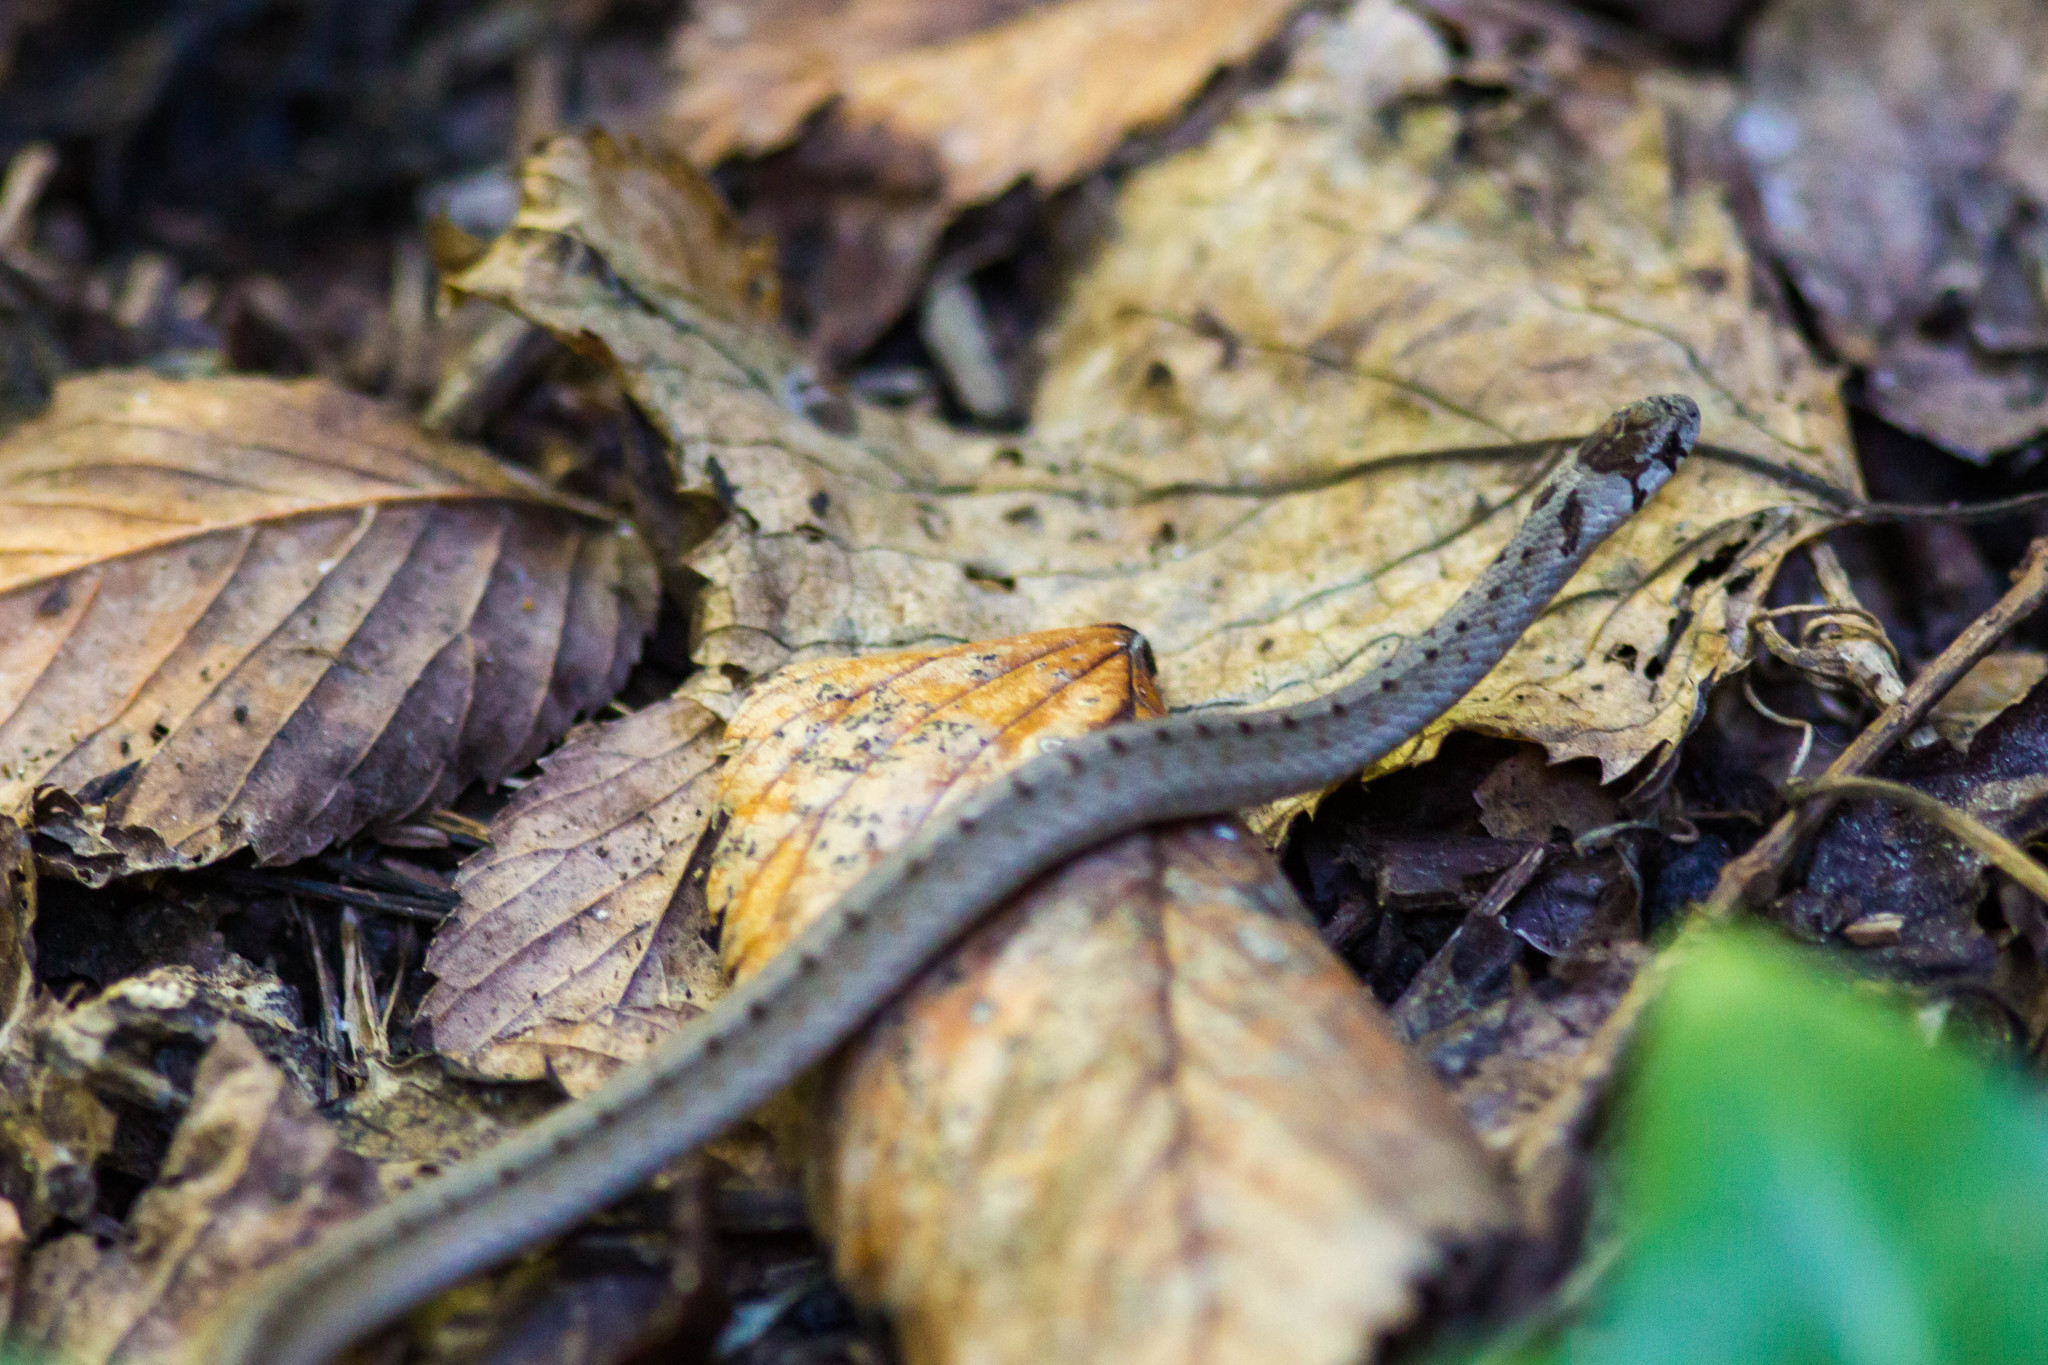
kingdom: Animalia
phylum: Chordata
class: Squamata
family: Colubridae
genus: Storeria
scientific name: Storeria dekayi
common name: (dekay’s) brown snake
